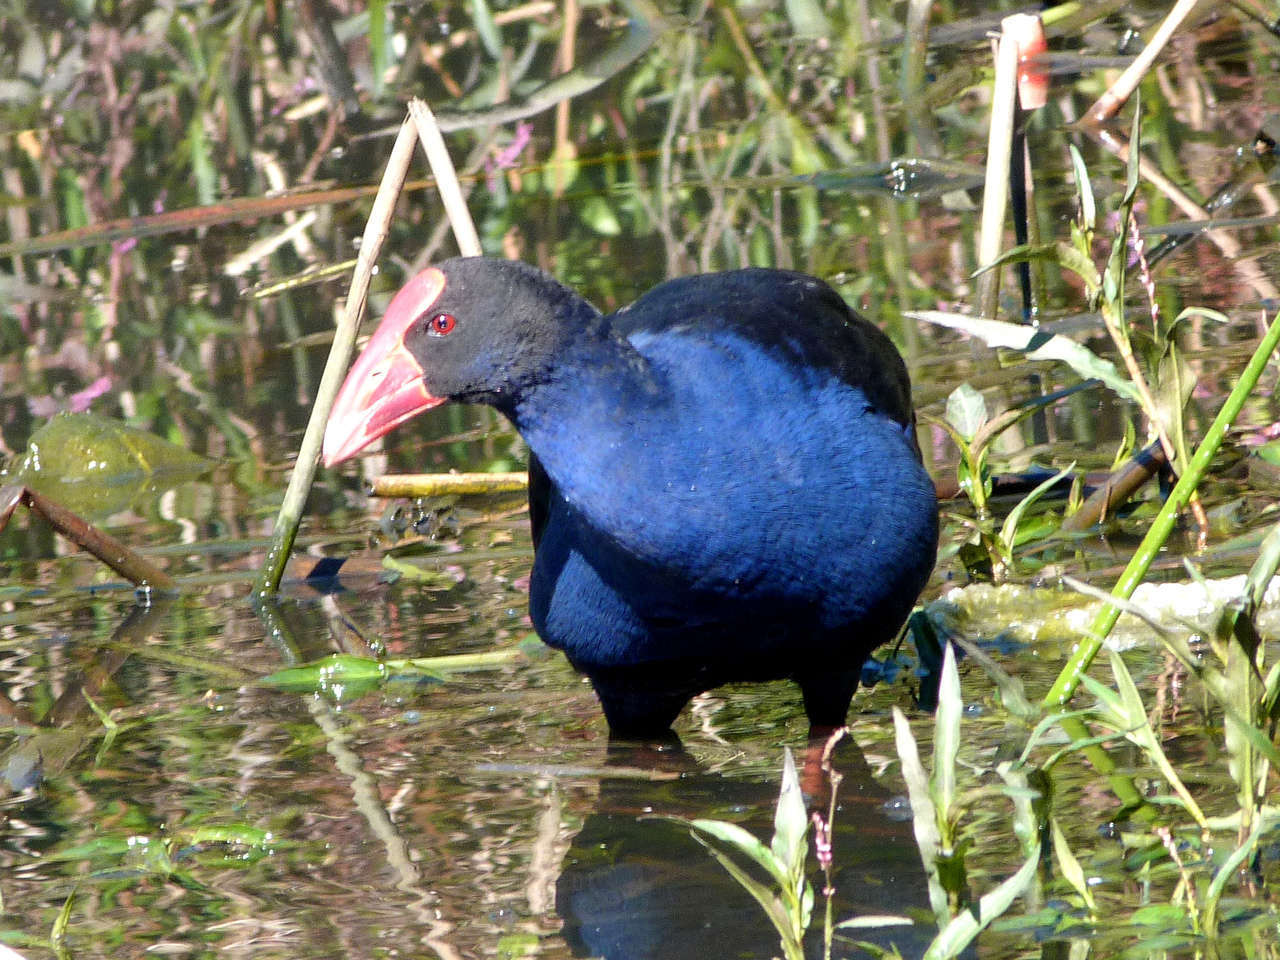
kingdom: Animalia
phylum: Chordata
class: Aves
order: Gruiformes
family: Rallidae
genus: Porphyrio
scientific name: Porphyrio melanotus
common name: Australasian swamphen
